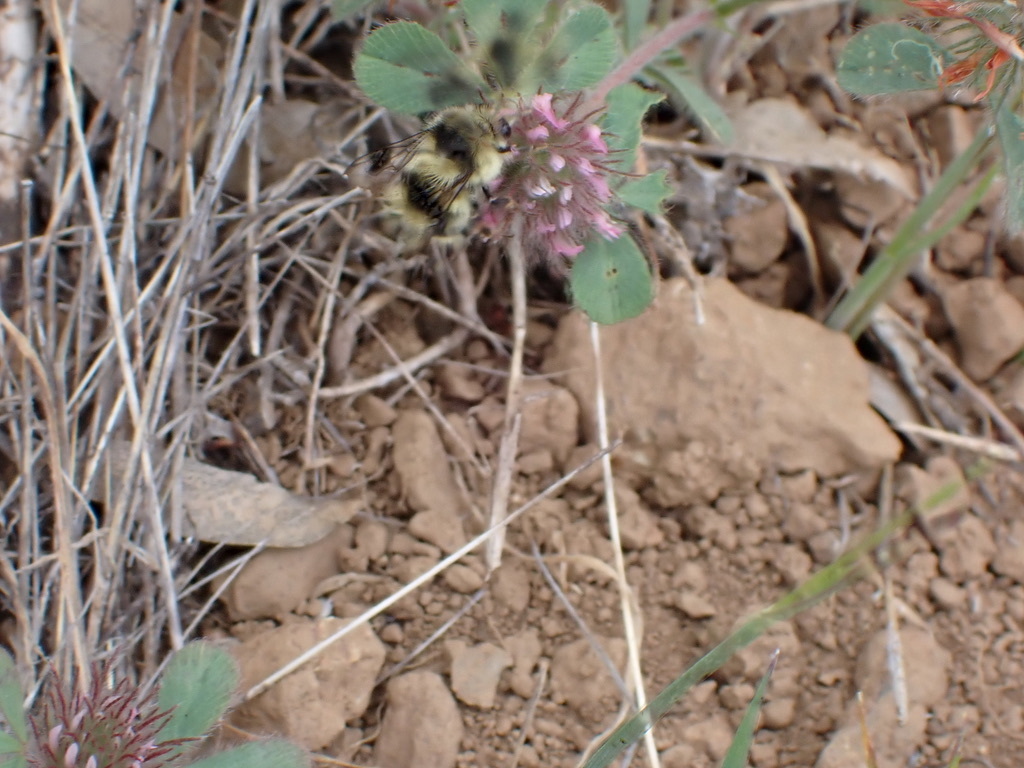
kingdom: Plantae
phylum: Tracheophyta
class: Magnoliopsida
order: Fabales
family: Fabaceae
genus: Trifolium
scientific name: Trifolium hirtum
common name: Rose clover
